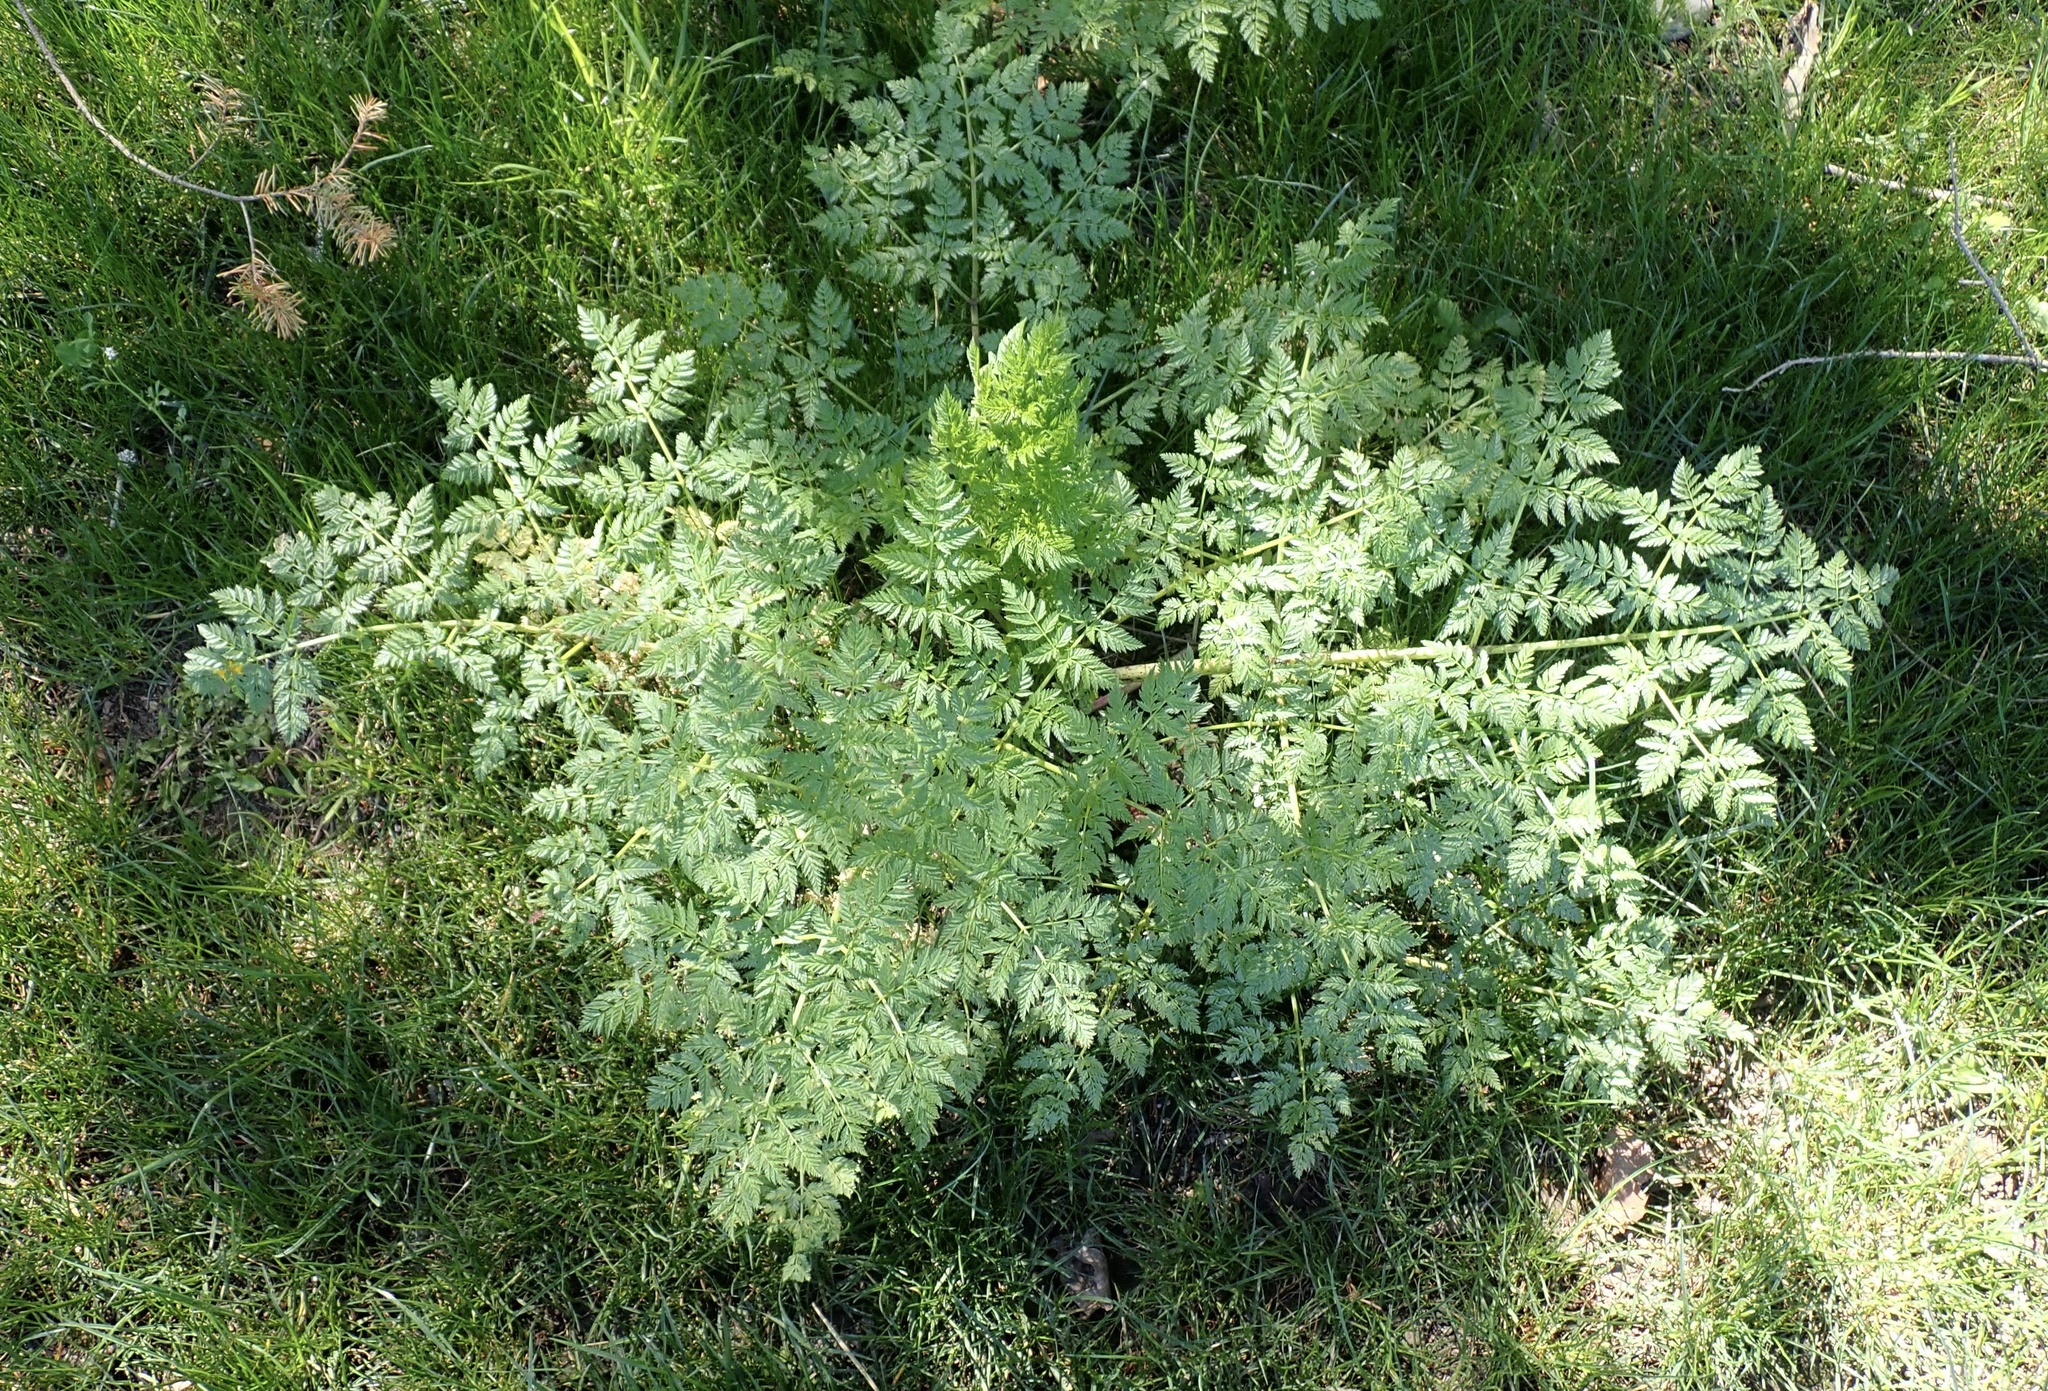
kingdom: Plantae
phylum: Tracheophyta
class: Magnoliopsida
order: Apiales
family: Apiaceae
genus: Conium
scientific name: Conium maculatum
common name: Hemlock
